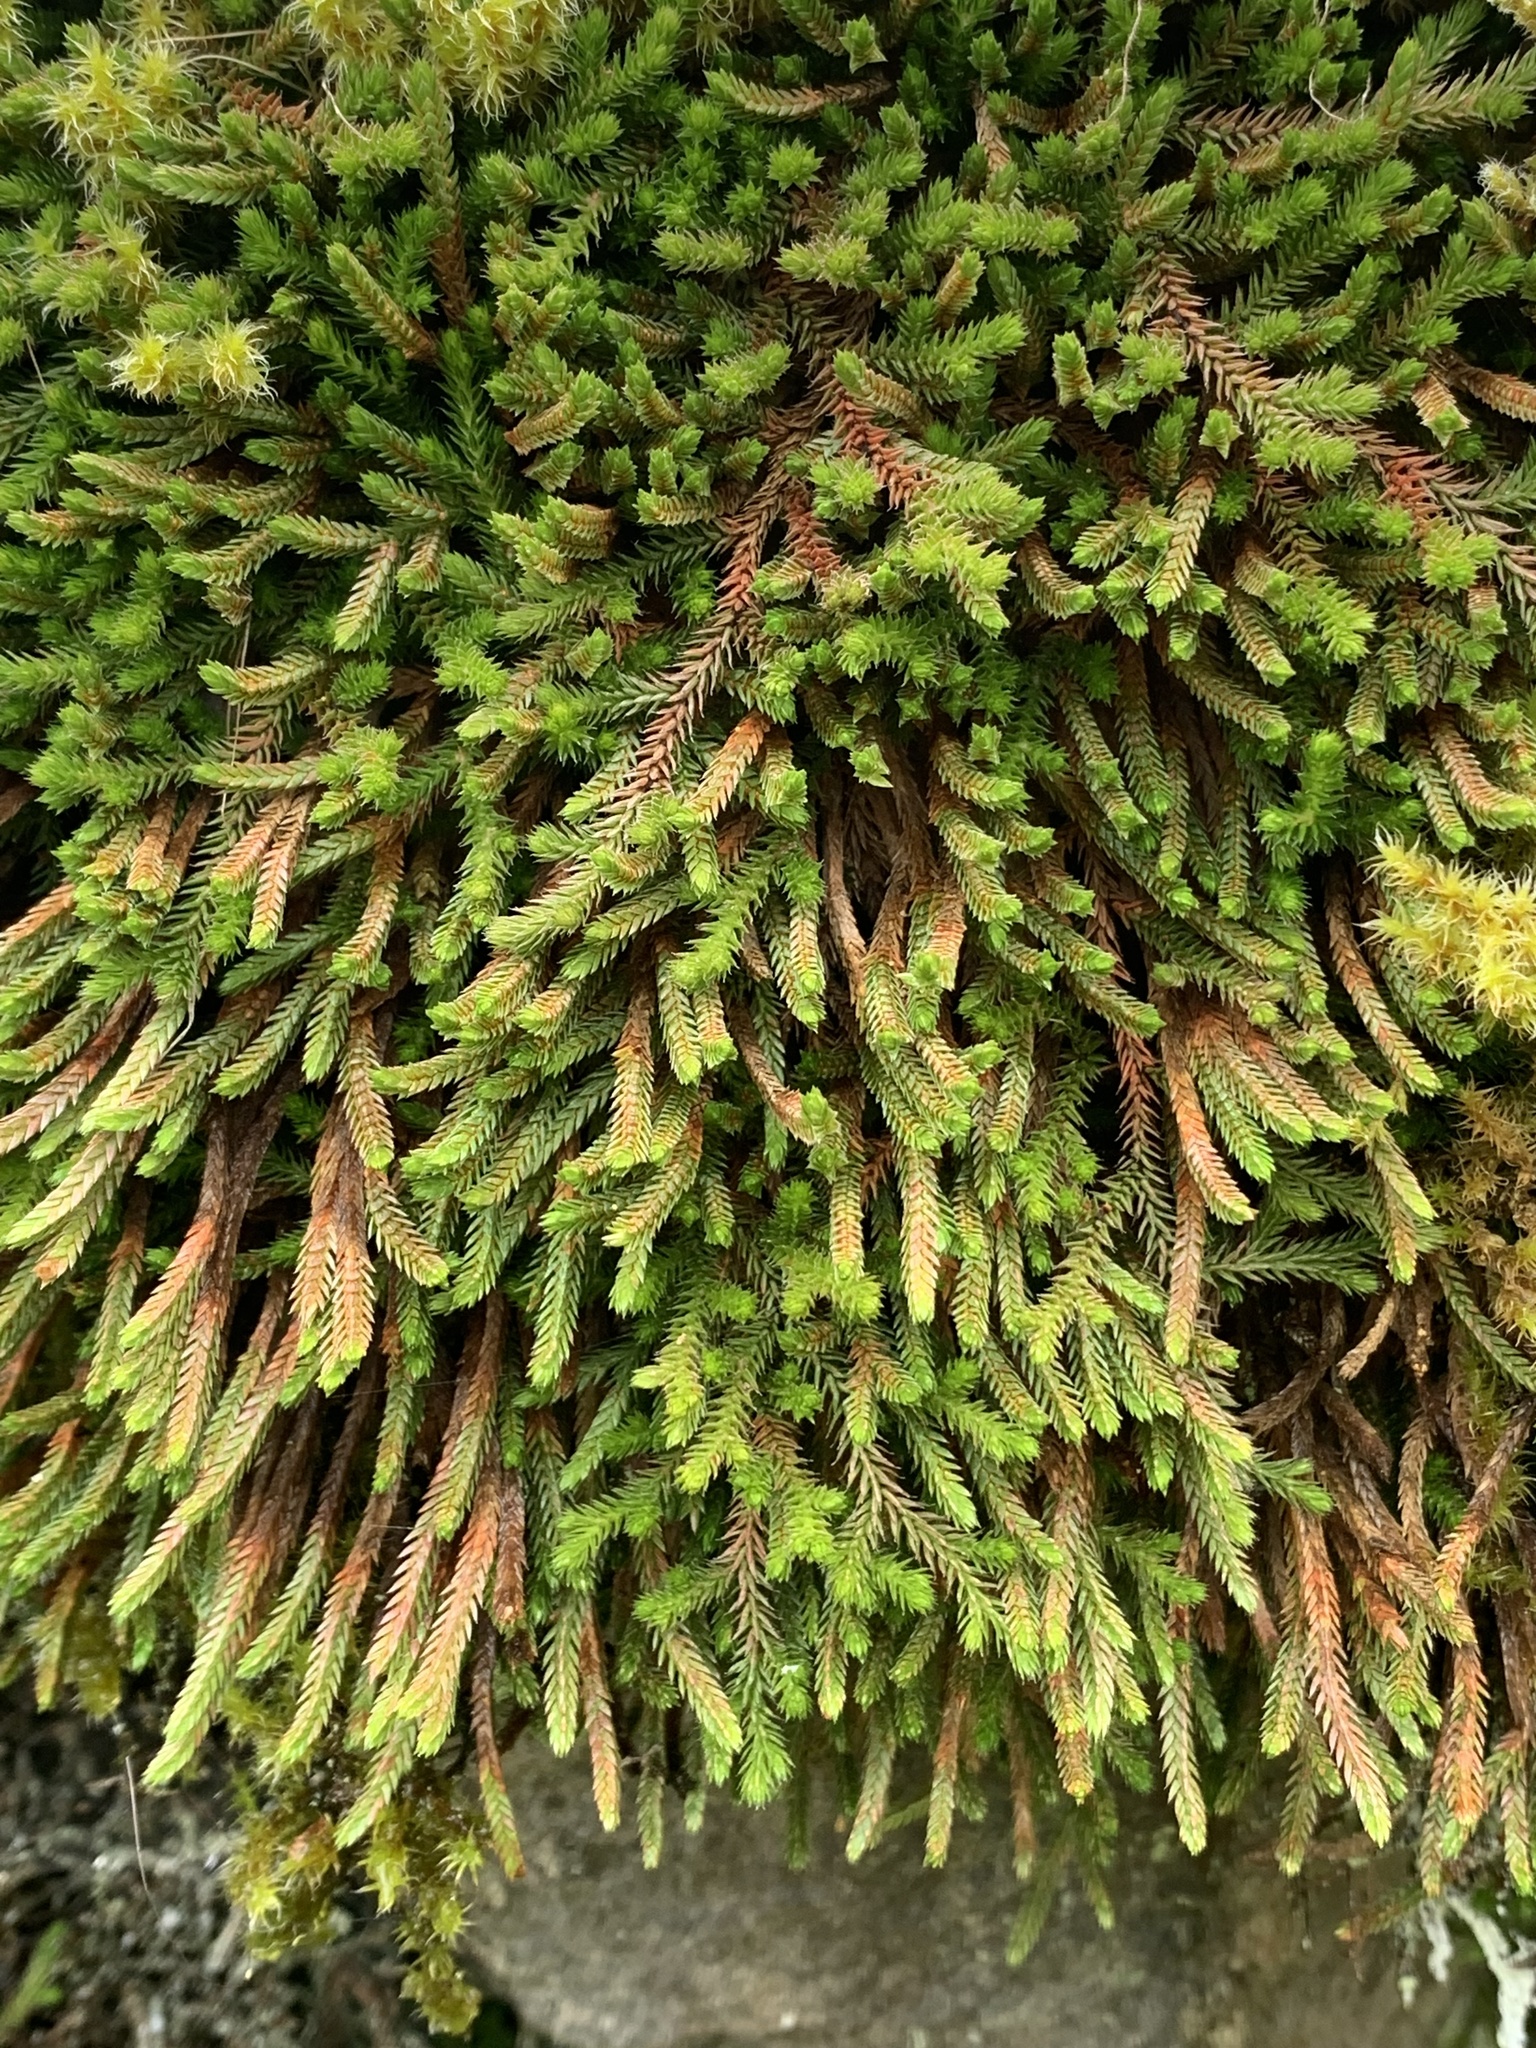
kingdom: Plantae
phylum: Tracheophyta
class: Lycopodiopsida
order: Selaginellales
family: Selaginellaceae
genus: Selaginella
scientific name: Selaginella wallacei
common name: Wallace's selaginella
